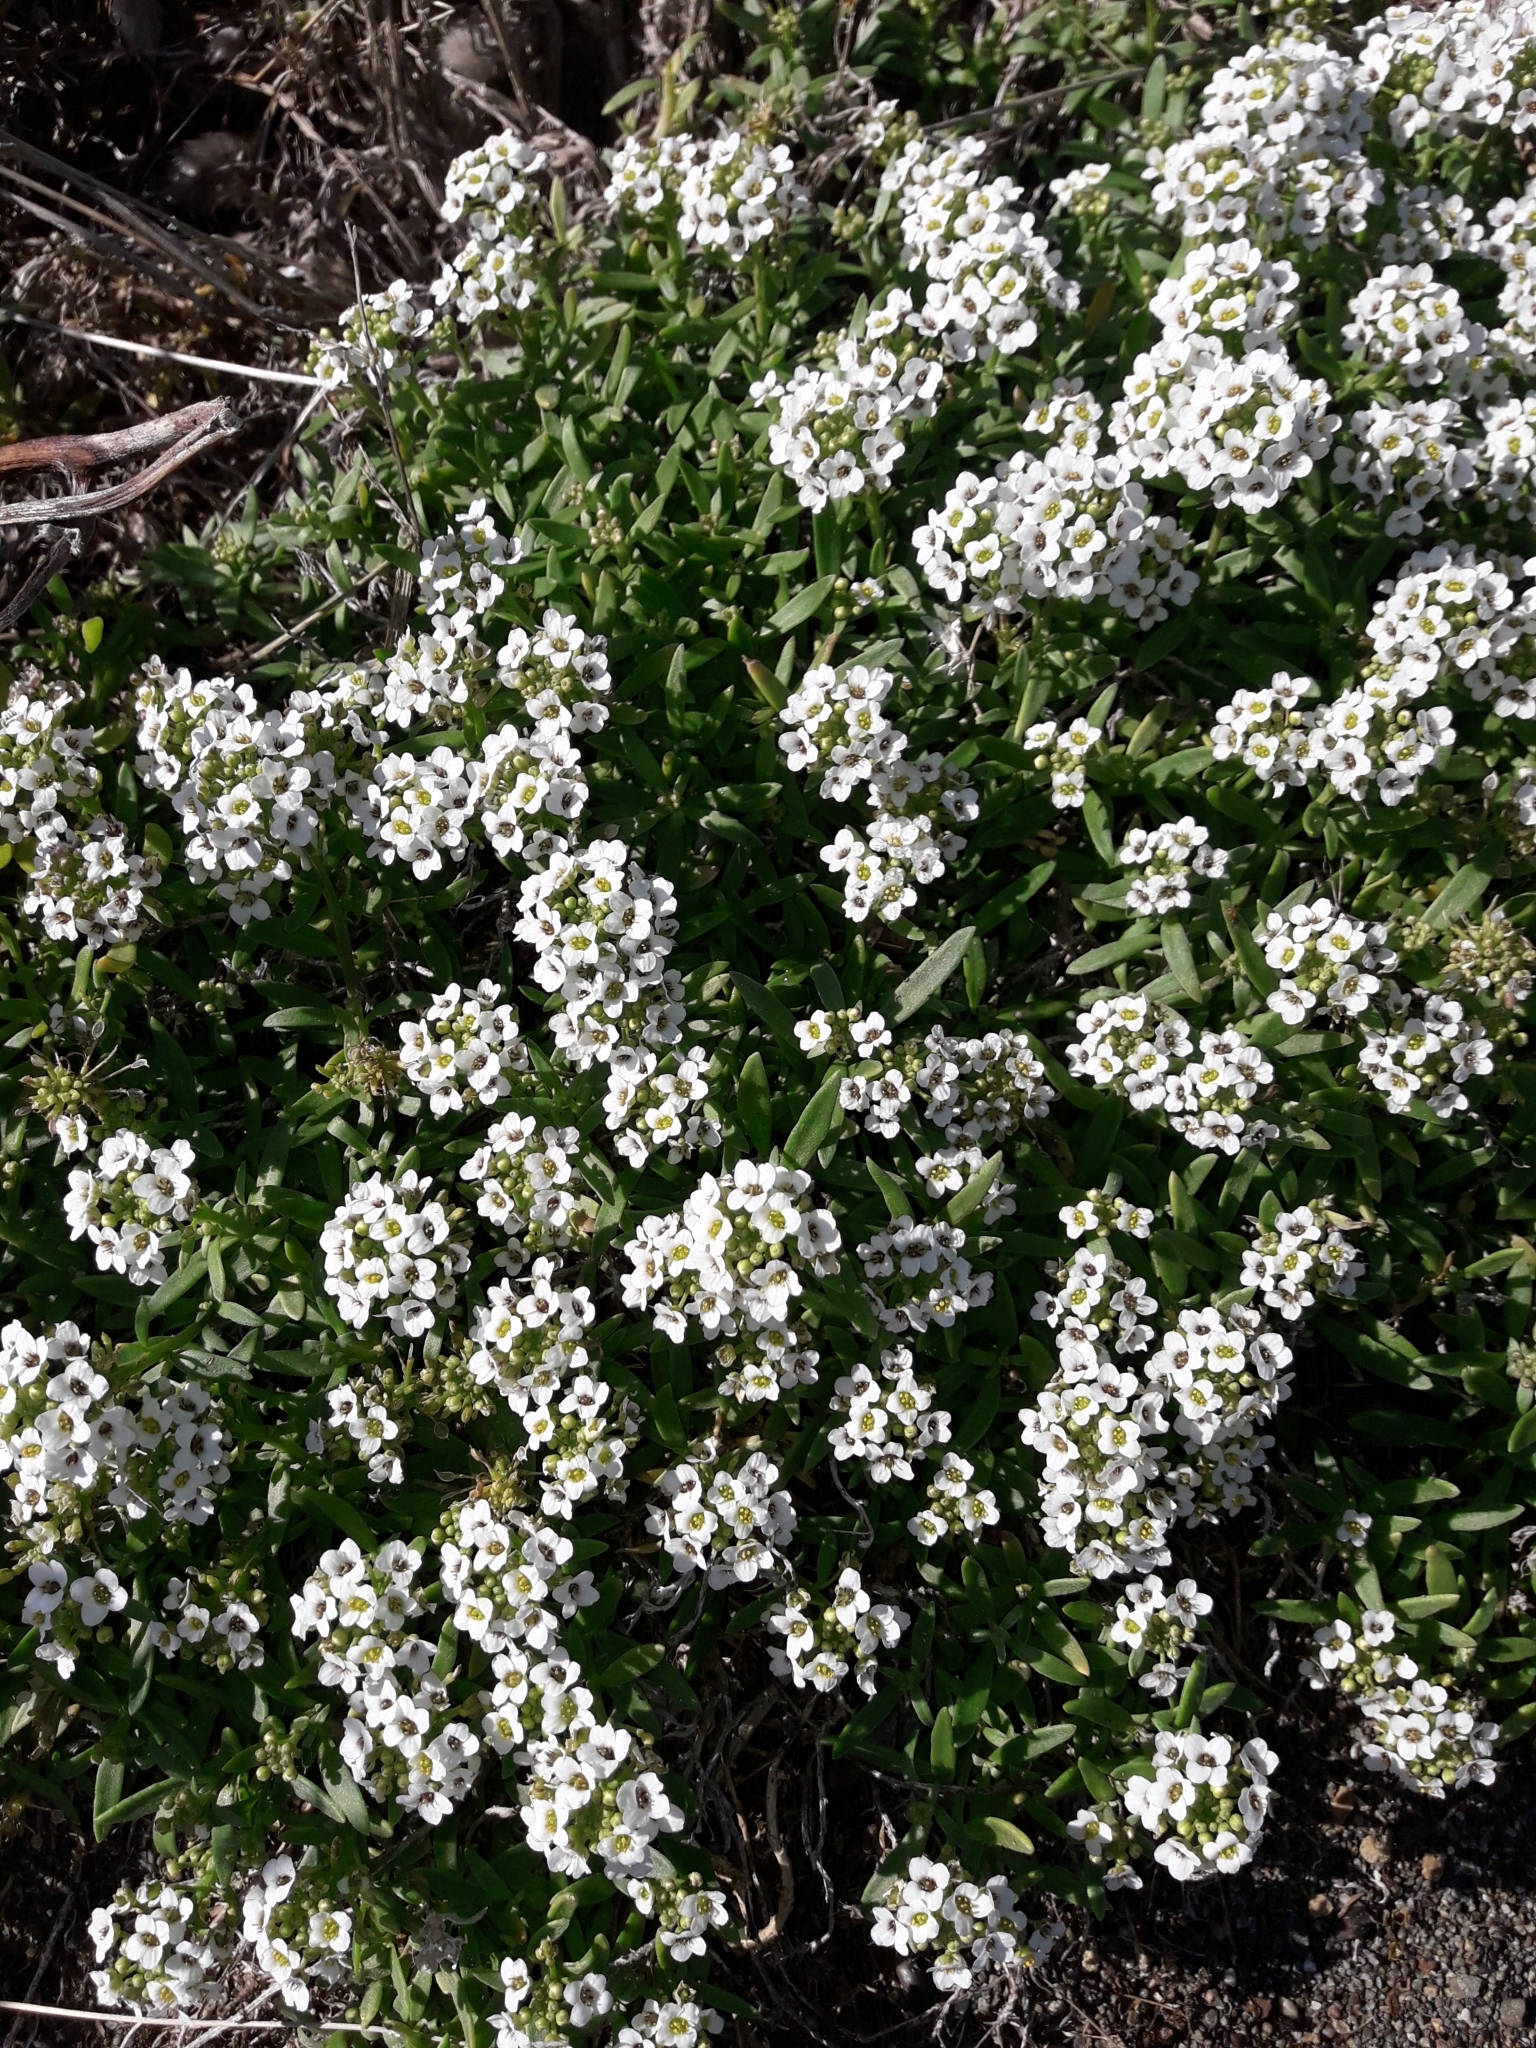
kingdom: Plantae
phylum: Tracheophyta
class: Magnoliopsida
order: Brassicales
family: Brassicaceae
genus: Lobularia
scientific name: Lobularia maritima
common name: Sweet alison
